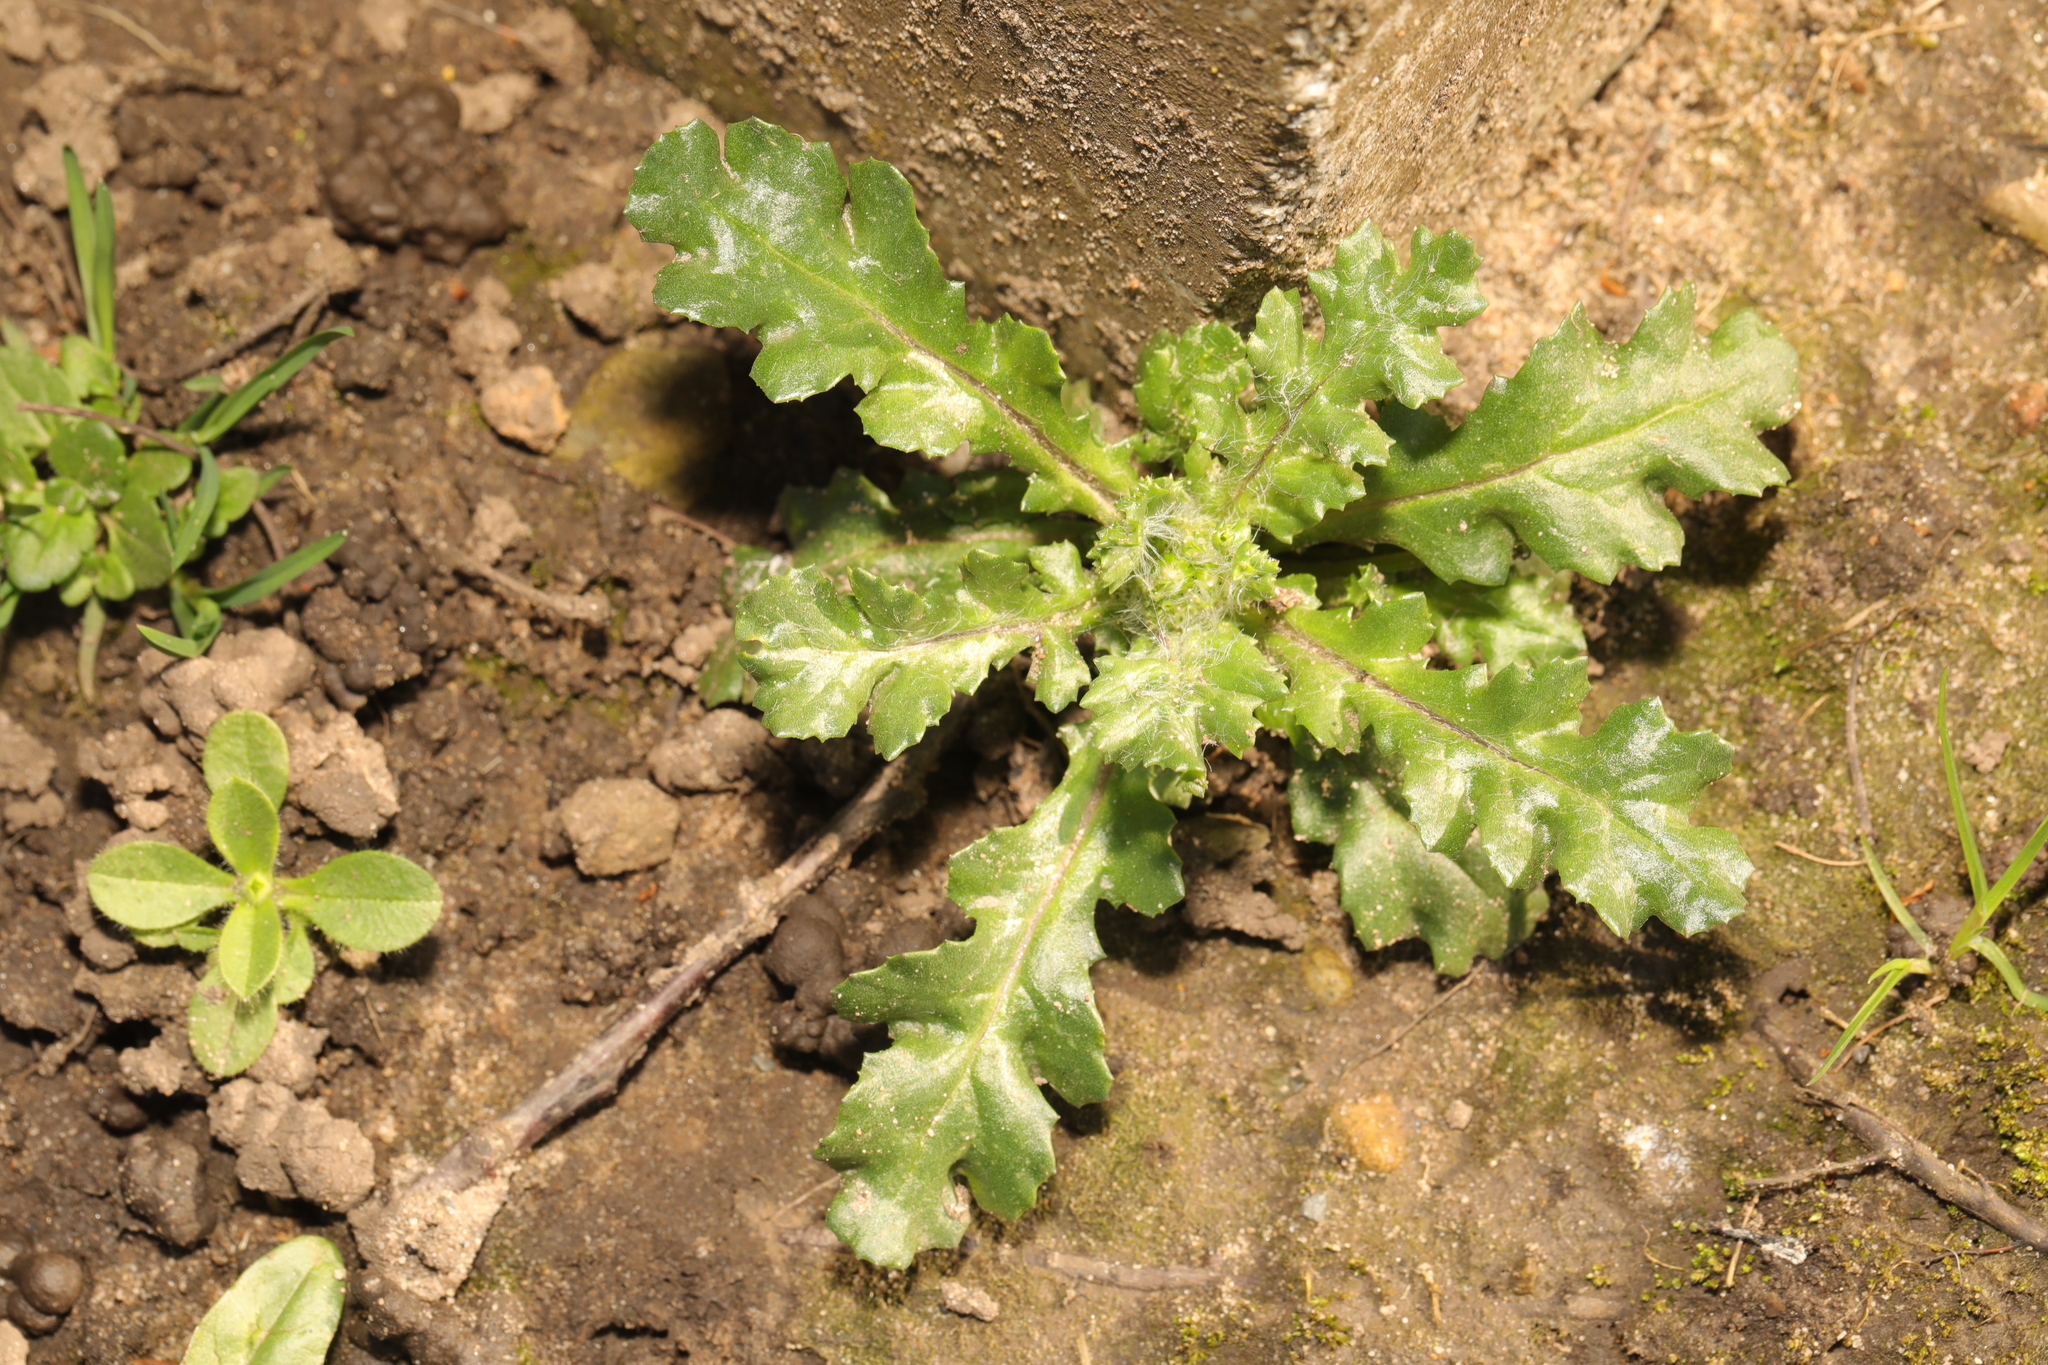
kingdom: Plantae
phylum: Tracheophyta
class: Magnoliopsida
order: Asterales
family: Asteraceae
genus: Senecio
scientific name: Senecio vulgaris
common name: Old-man-in-the-spring
